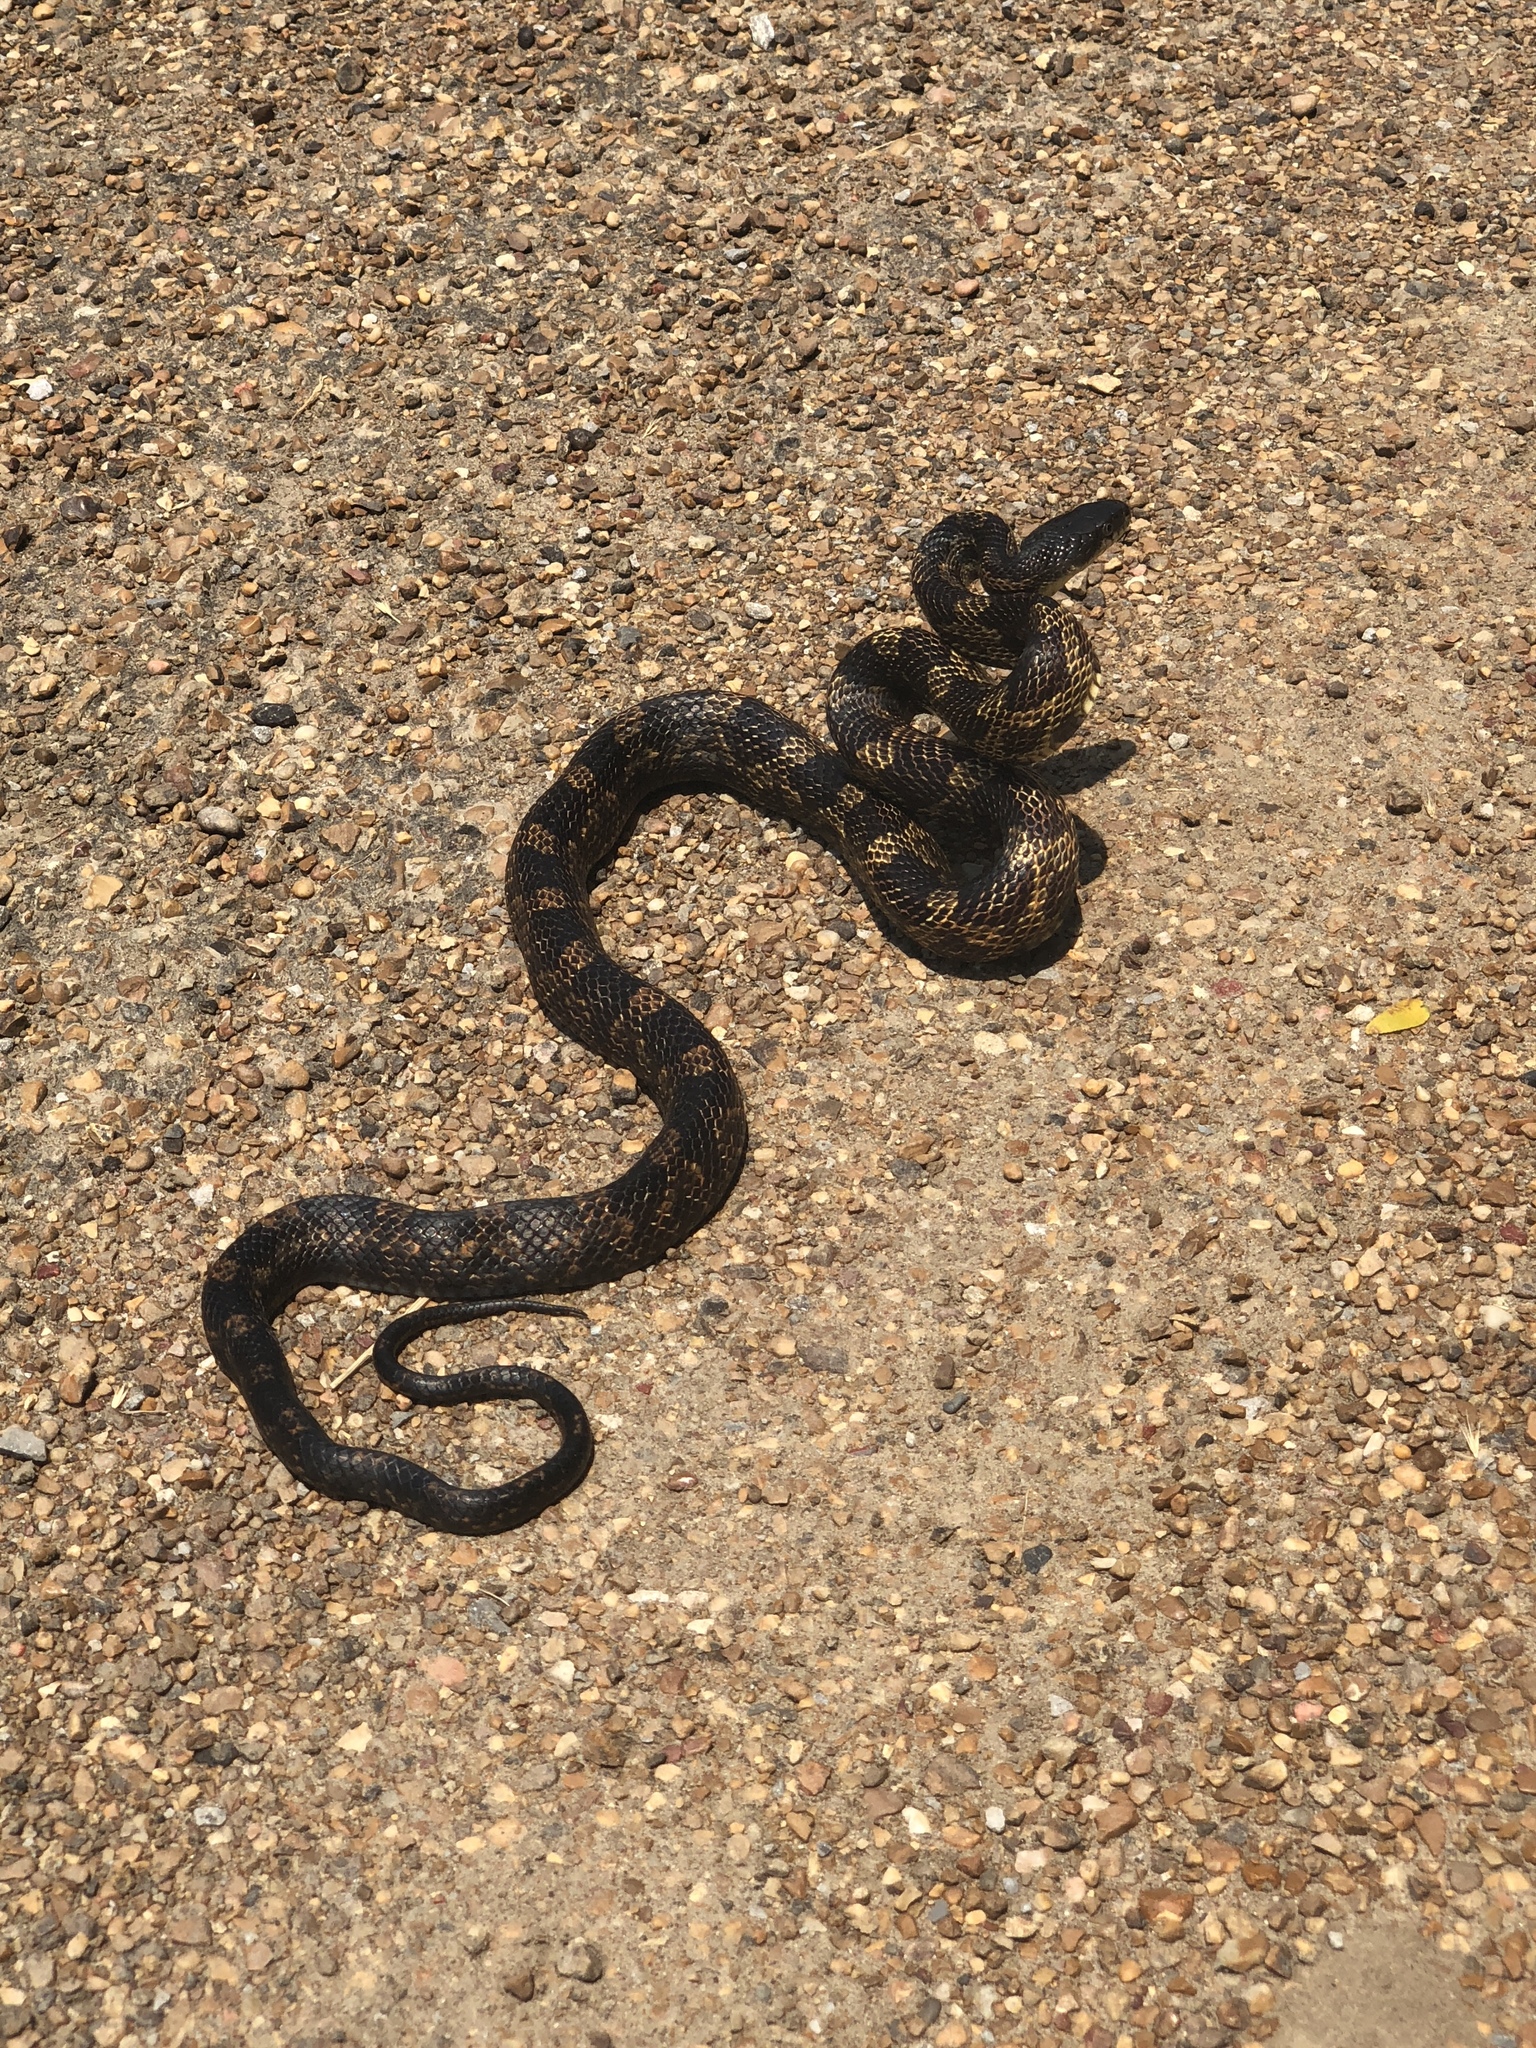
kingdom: Animalia
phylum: Chordata
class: Squamata
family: Colubridae
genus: Pantherophis
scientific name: Pantherophis spiloides
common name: Gray rat snake
